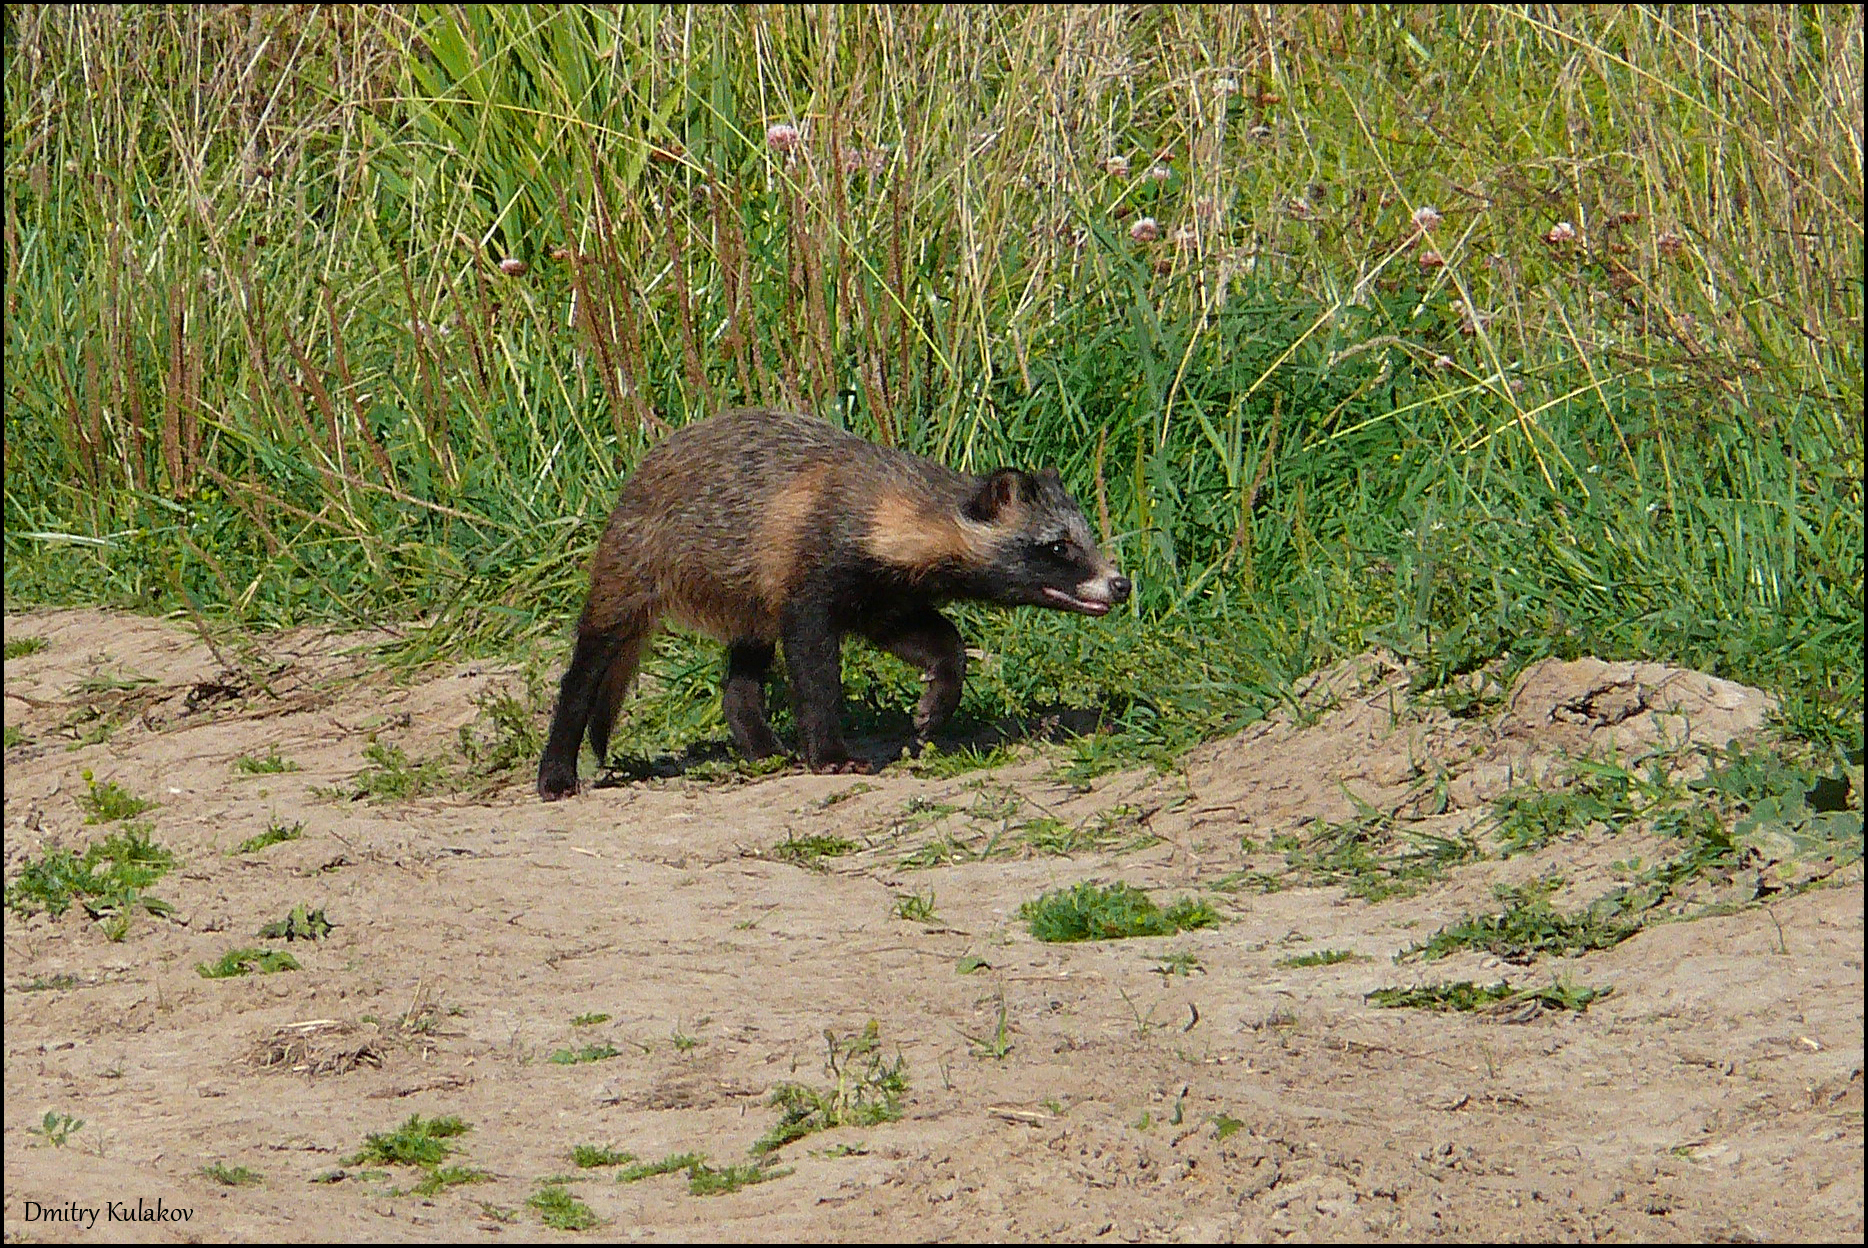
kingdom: Animalia
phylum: Chordata
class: Mammalia
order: Carnivora
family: Canidae
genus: Nyctereutes
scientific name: Nyctereutes procyonoides
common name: Raccoon dog
